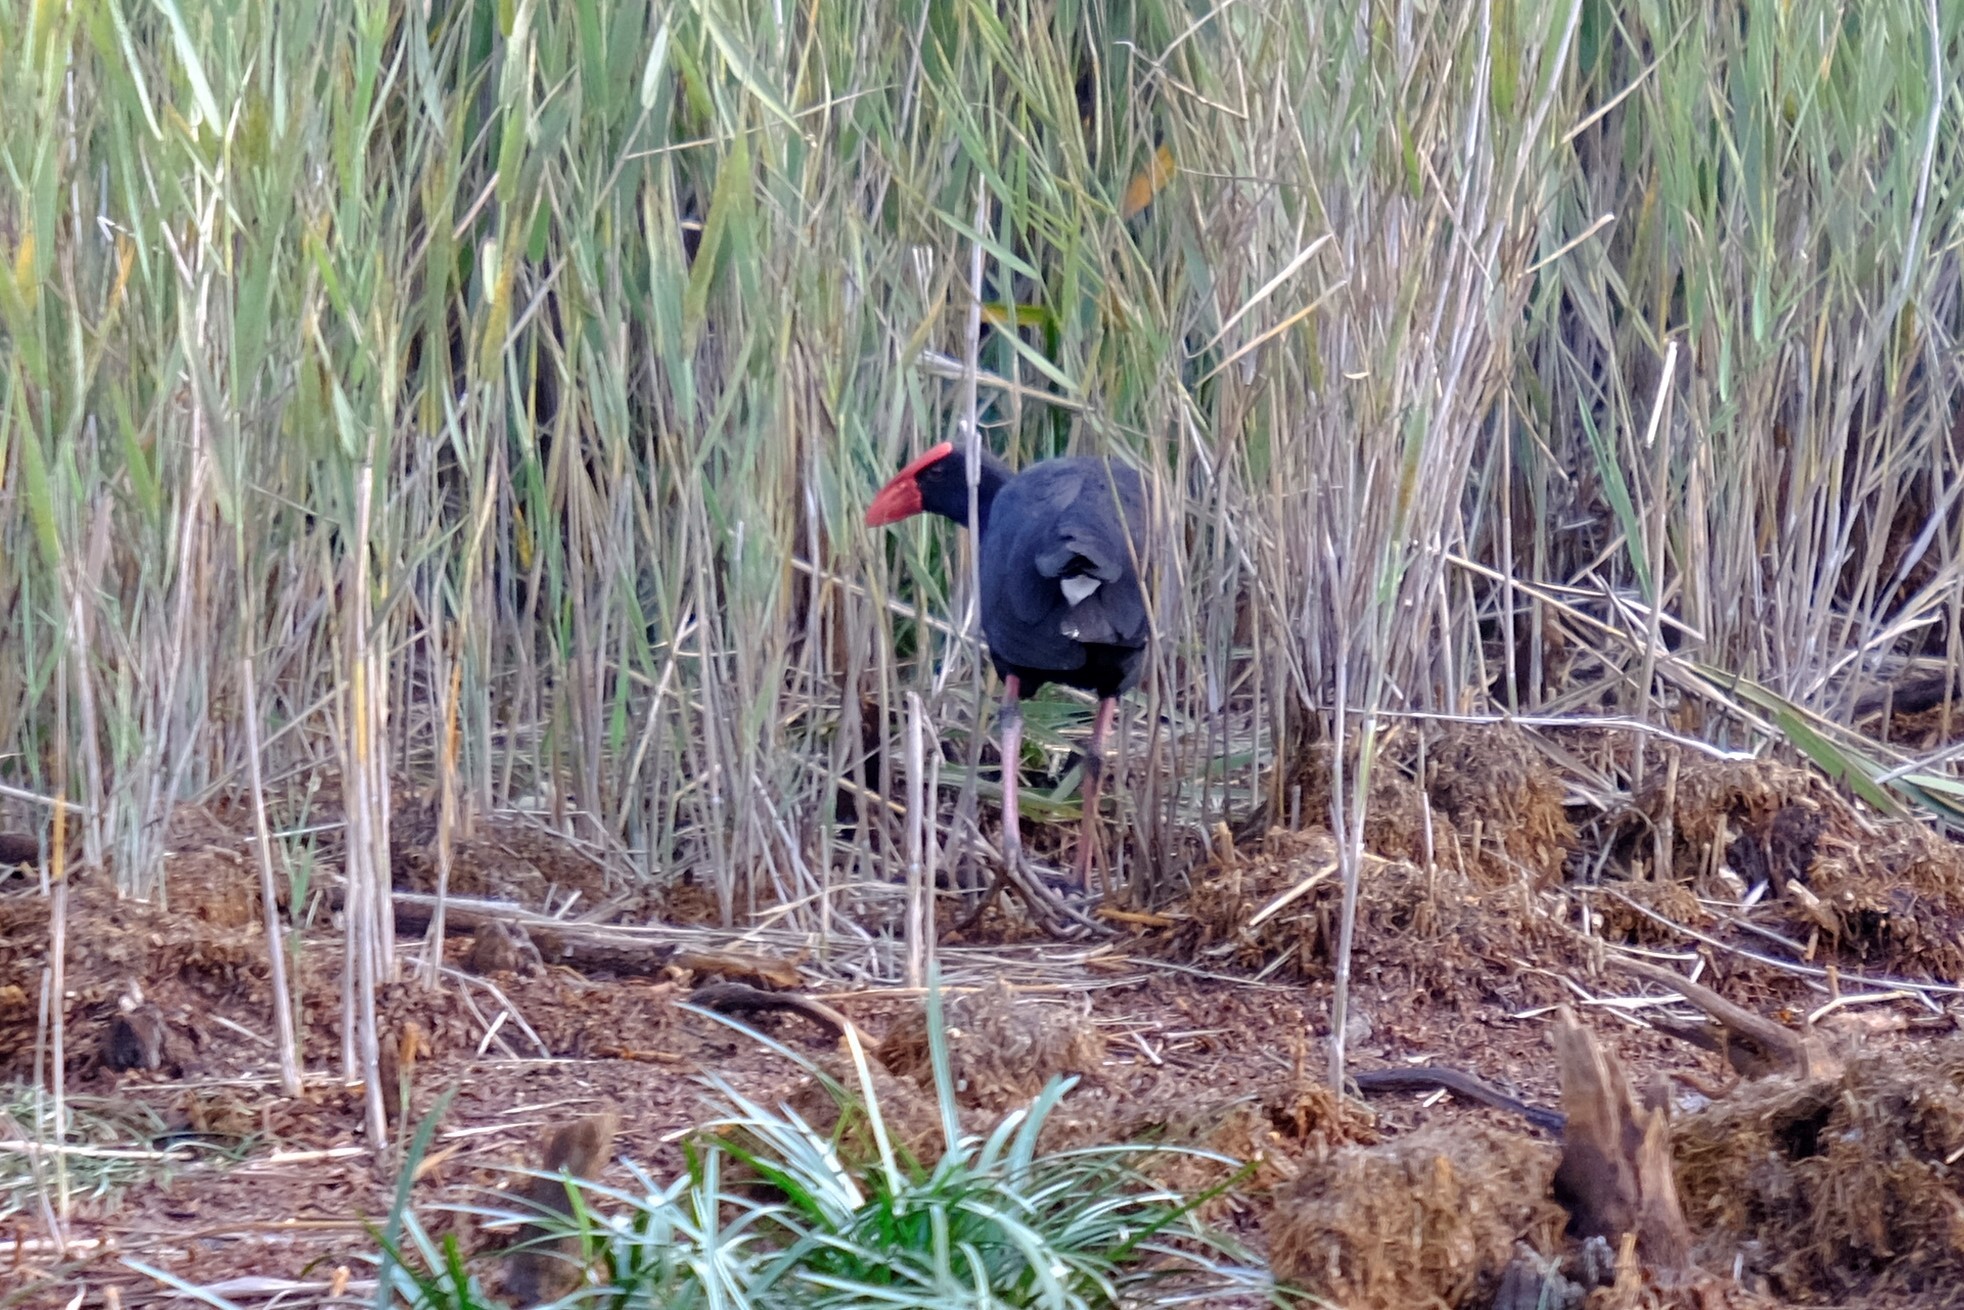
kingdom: Animalia
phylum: Chordata
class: Aves
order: Gruiformes
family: Rallidae
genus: Porphyrio
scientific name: Porphyrio melanotus
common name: Australasian swamphen
